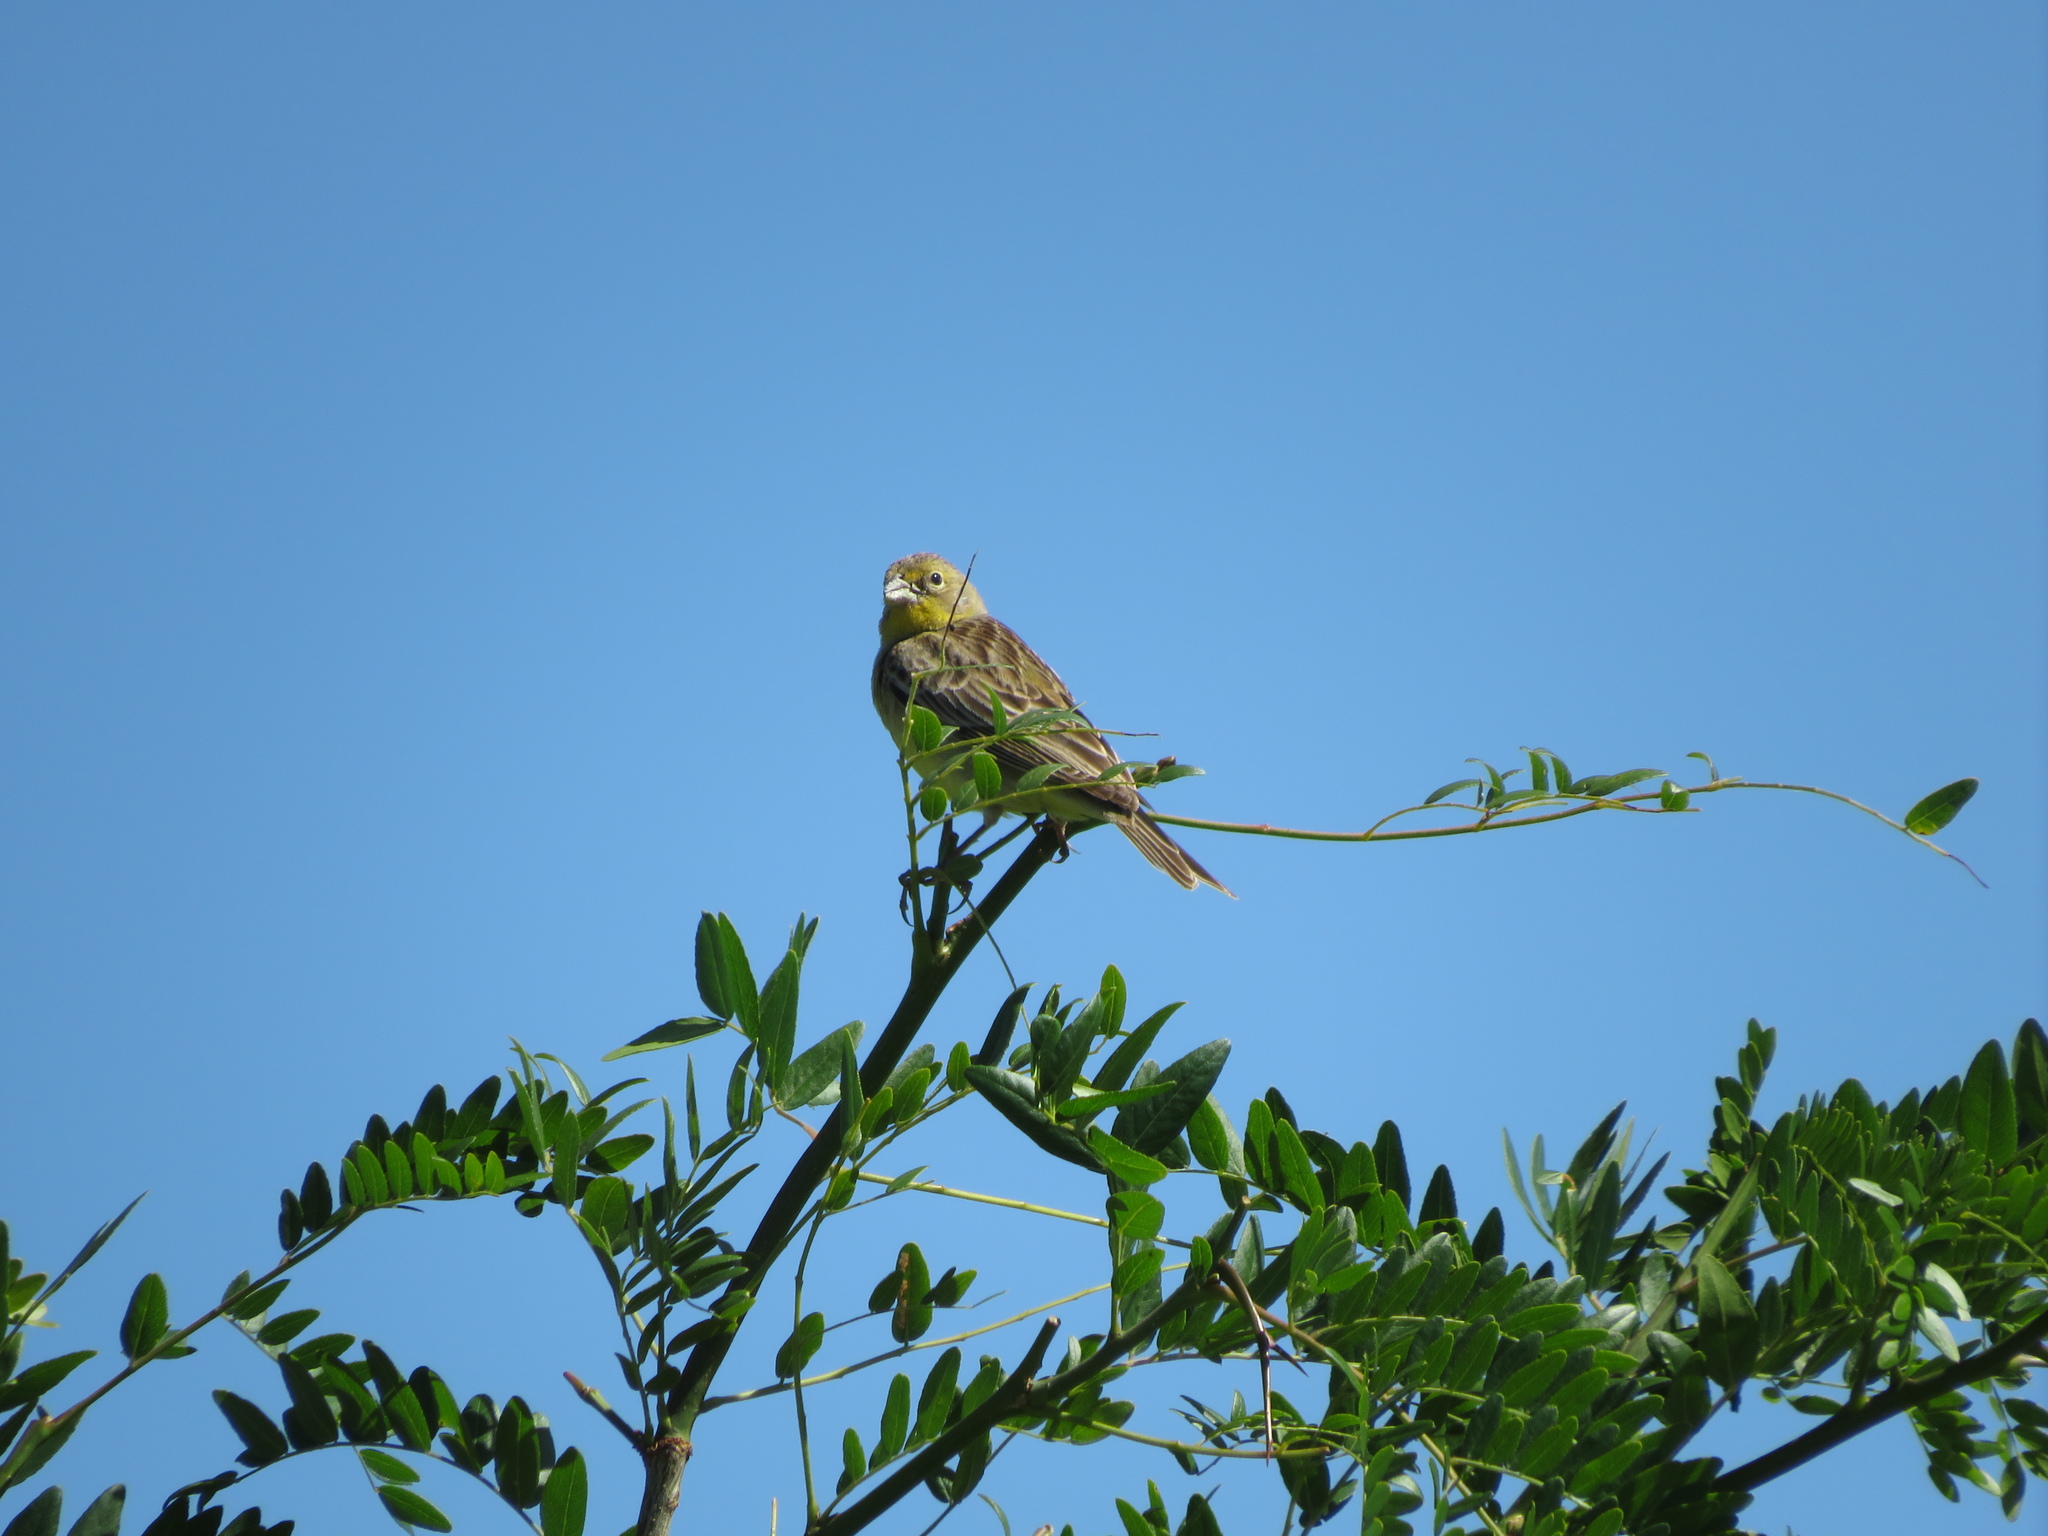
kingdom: Animalia
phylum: Chordata
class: Aves
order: Passeriformes
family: Thraupidae
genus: Sicalis
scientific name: Sicalis luteola
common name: Grassland yellow-finch
